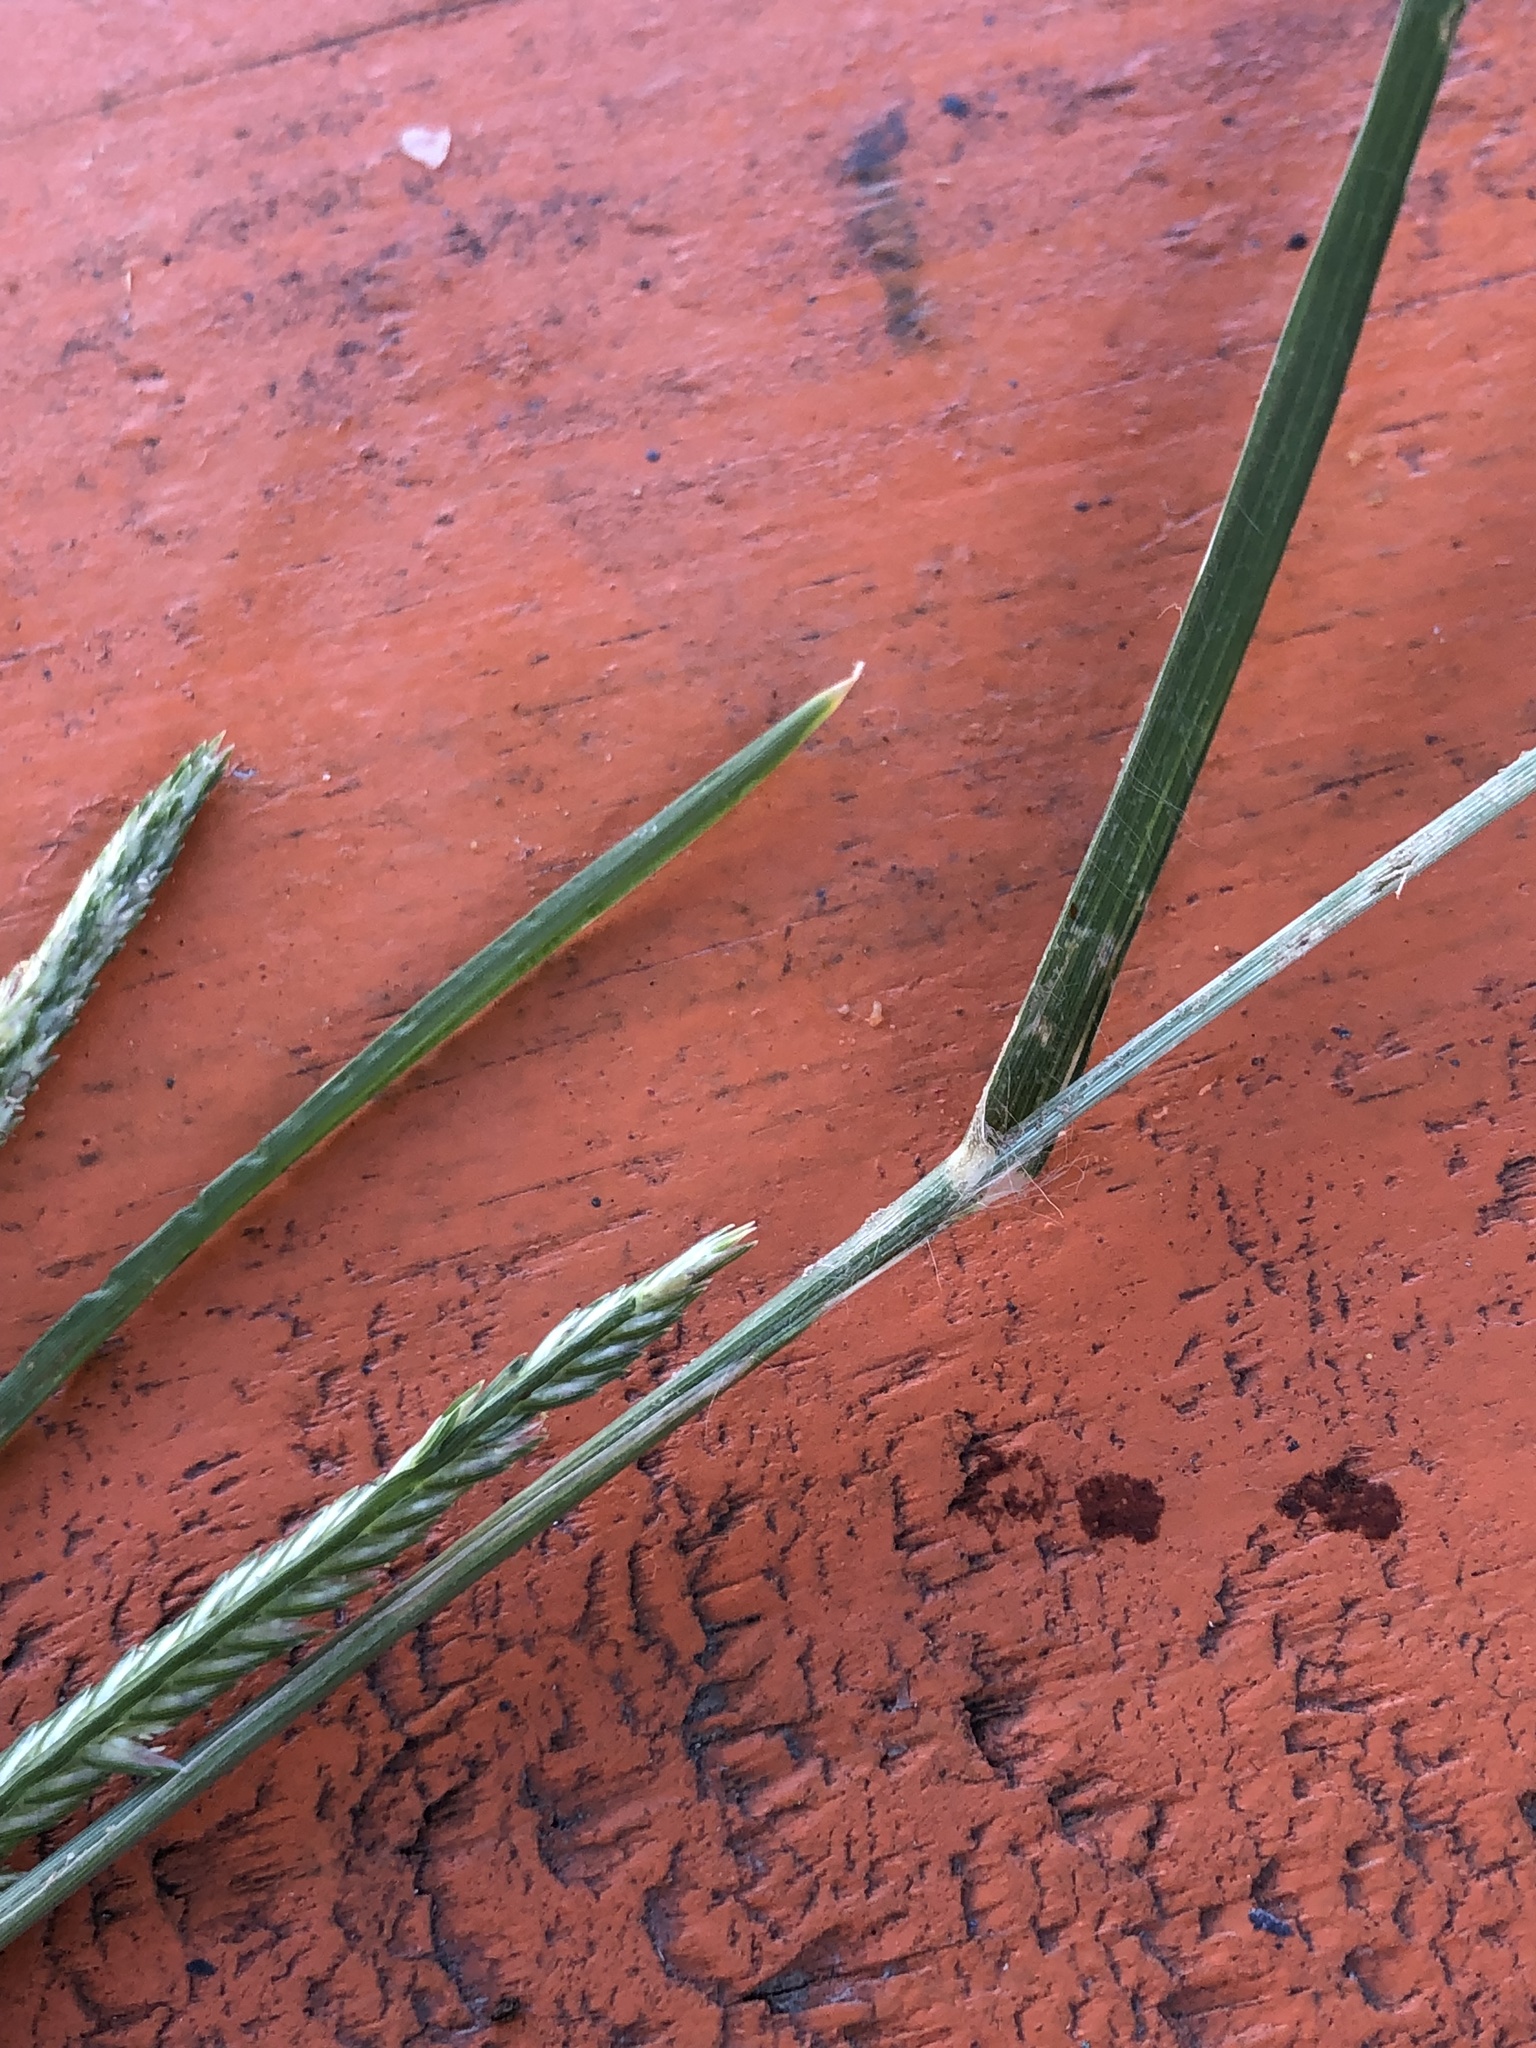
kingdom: Plantae
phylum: Tracheophyta
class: Liliopsida
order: Poales
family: Poaceae
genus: Eleusine
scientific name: Eleusine indica
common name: Yard-grass
